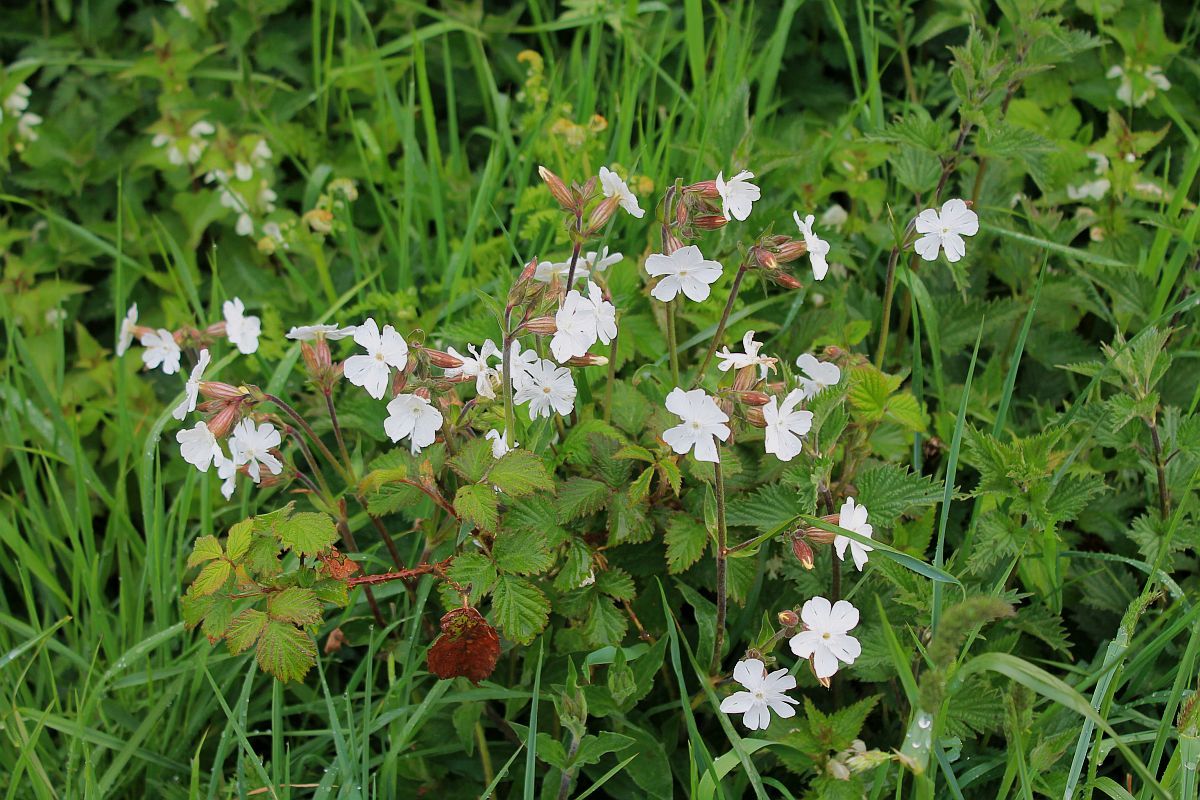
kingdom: Plantae
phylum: Tracheophyta
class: Magnoliopsida
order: Caryophyllales
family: Caryophyllaceae
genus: Silene
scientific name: Silene latifolia
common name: White campion
